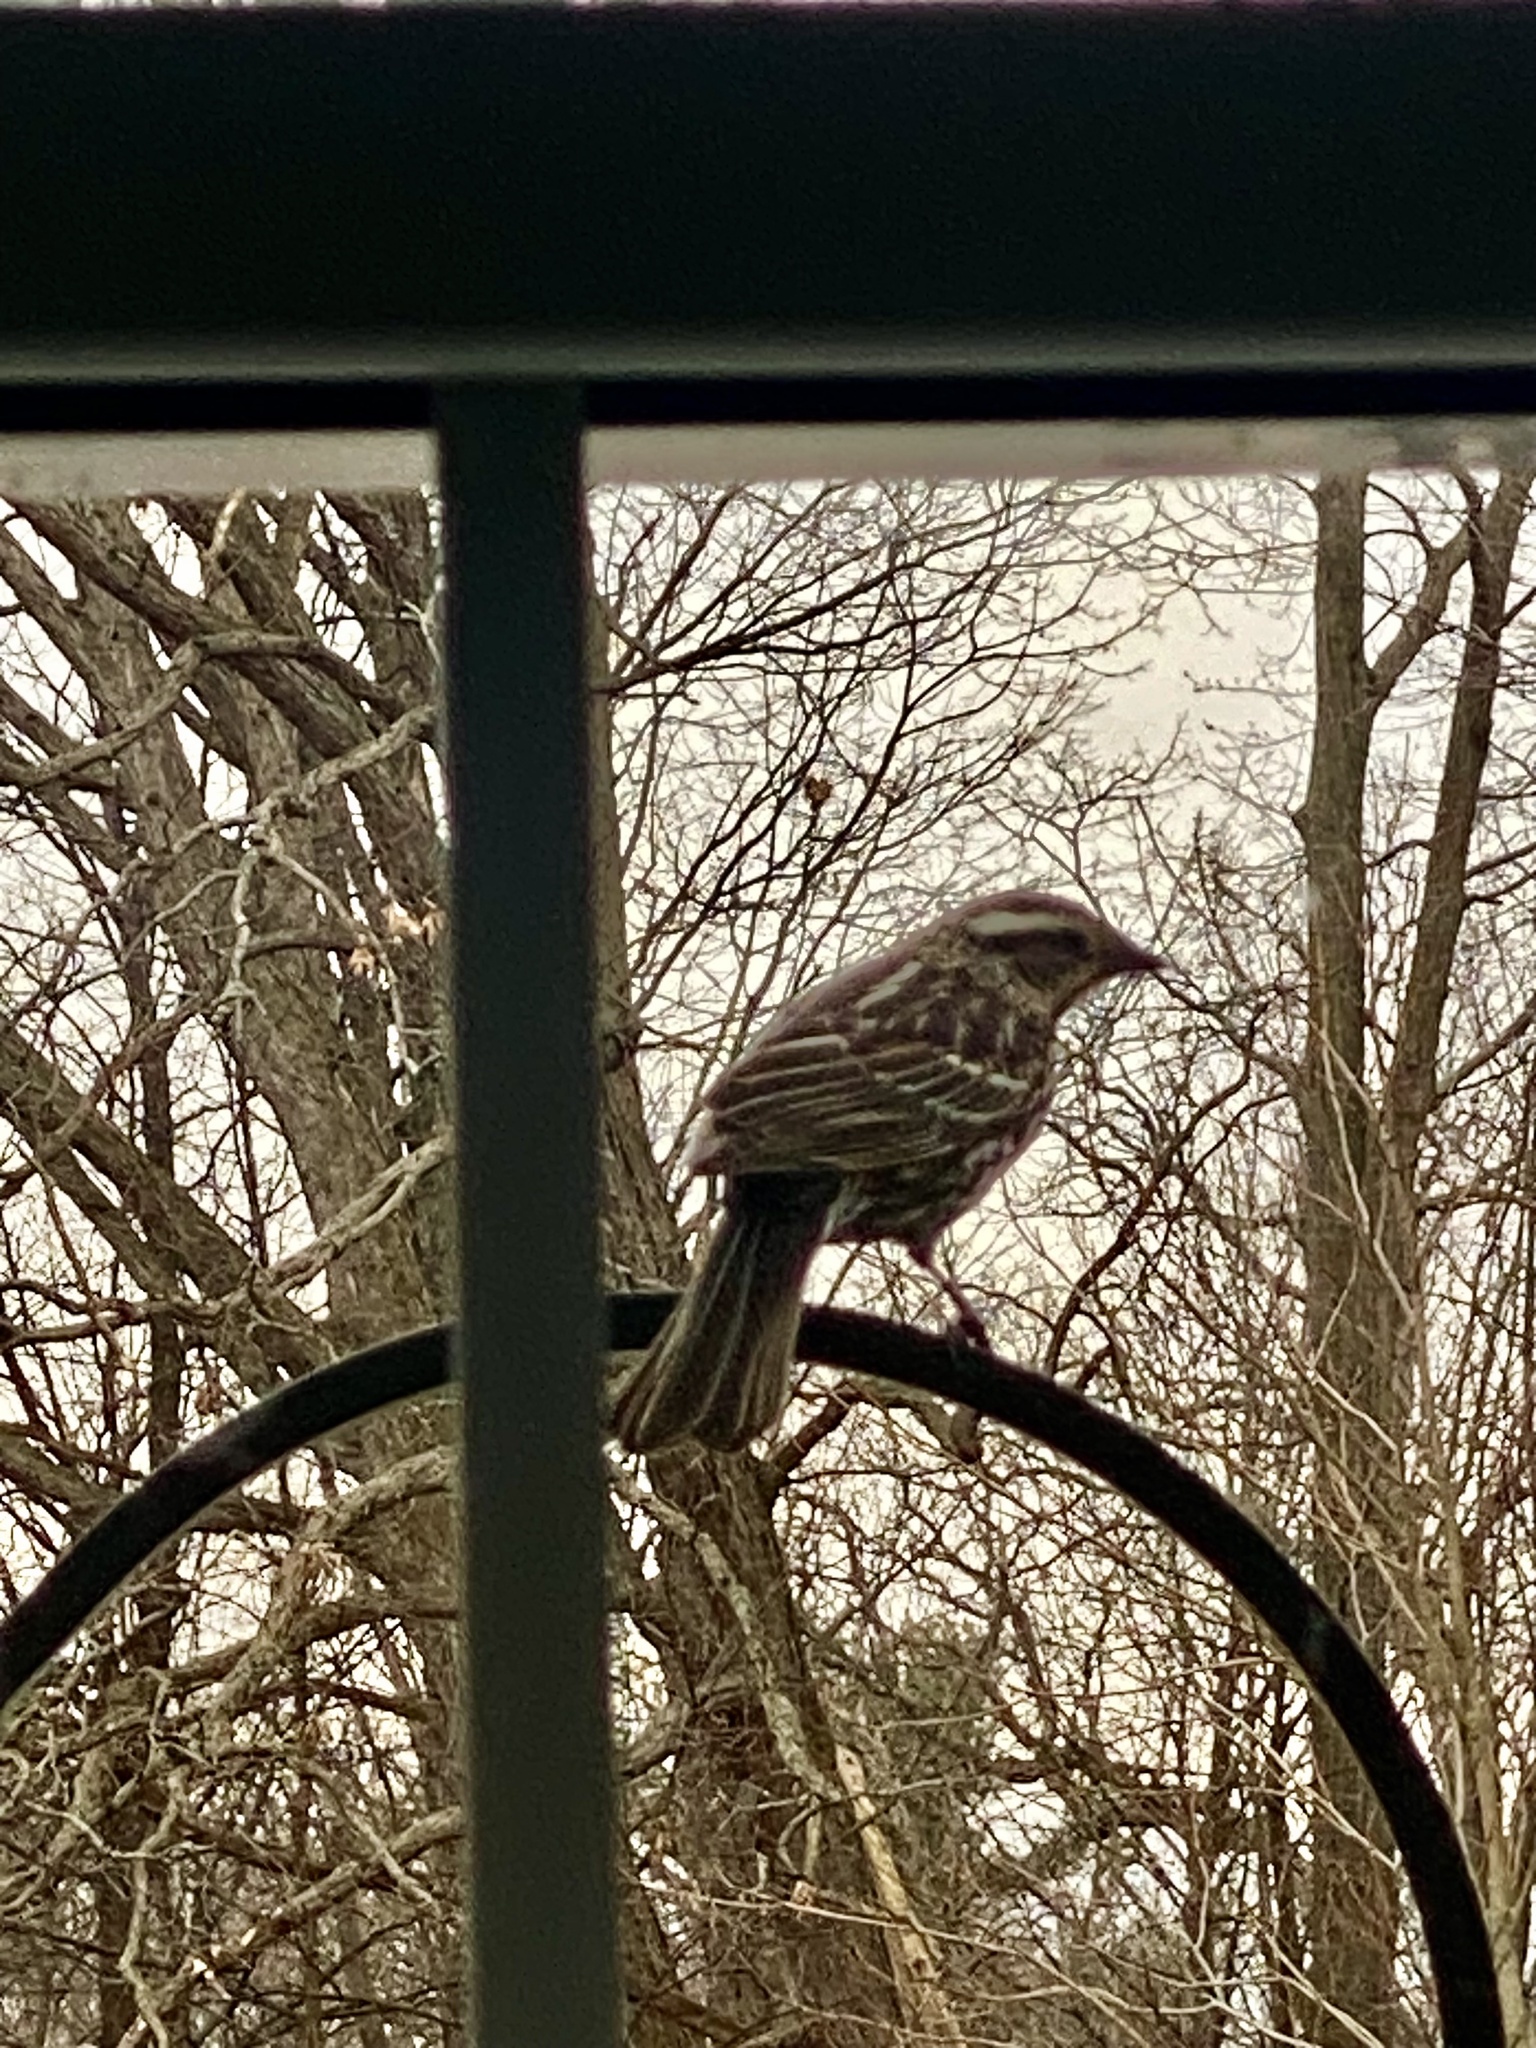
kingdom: Animalia
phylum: Chordata
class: Aves
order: Passeriformes
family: Icteridae
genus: Agelaius
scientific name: Agelaius phoeniceus
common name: Red-winged blackbird
